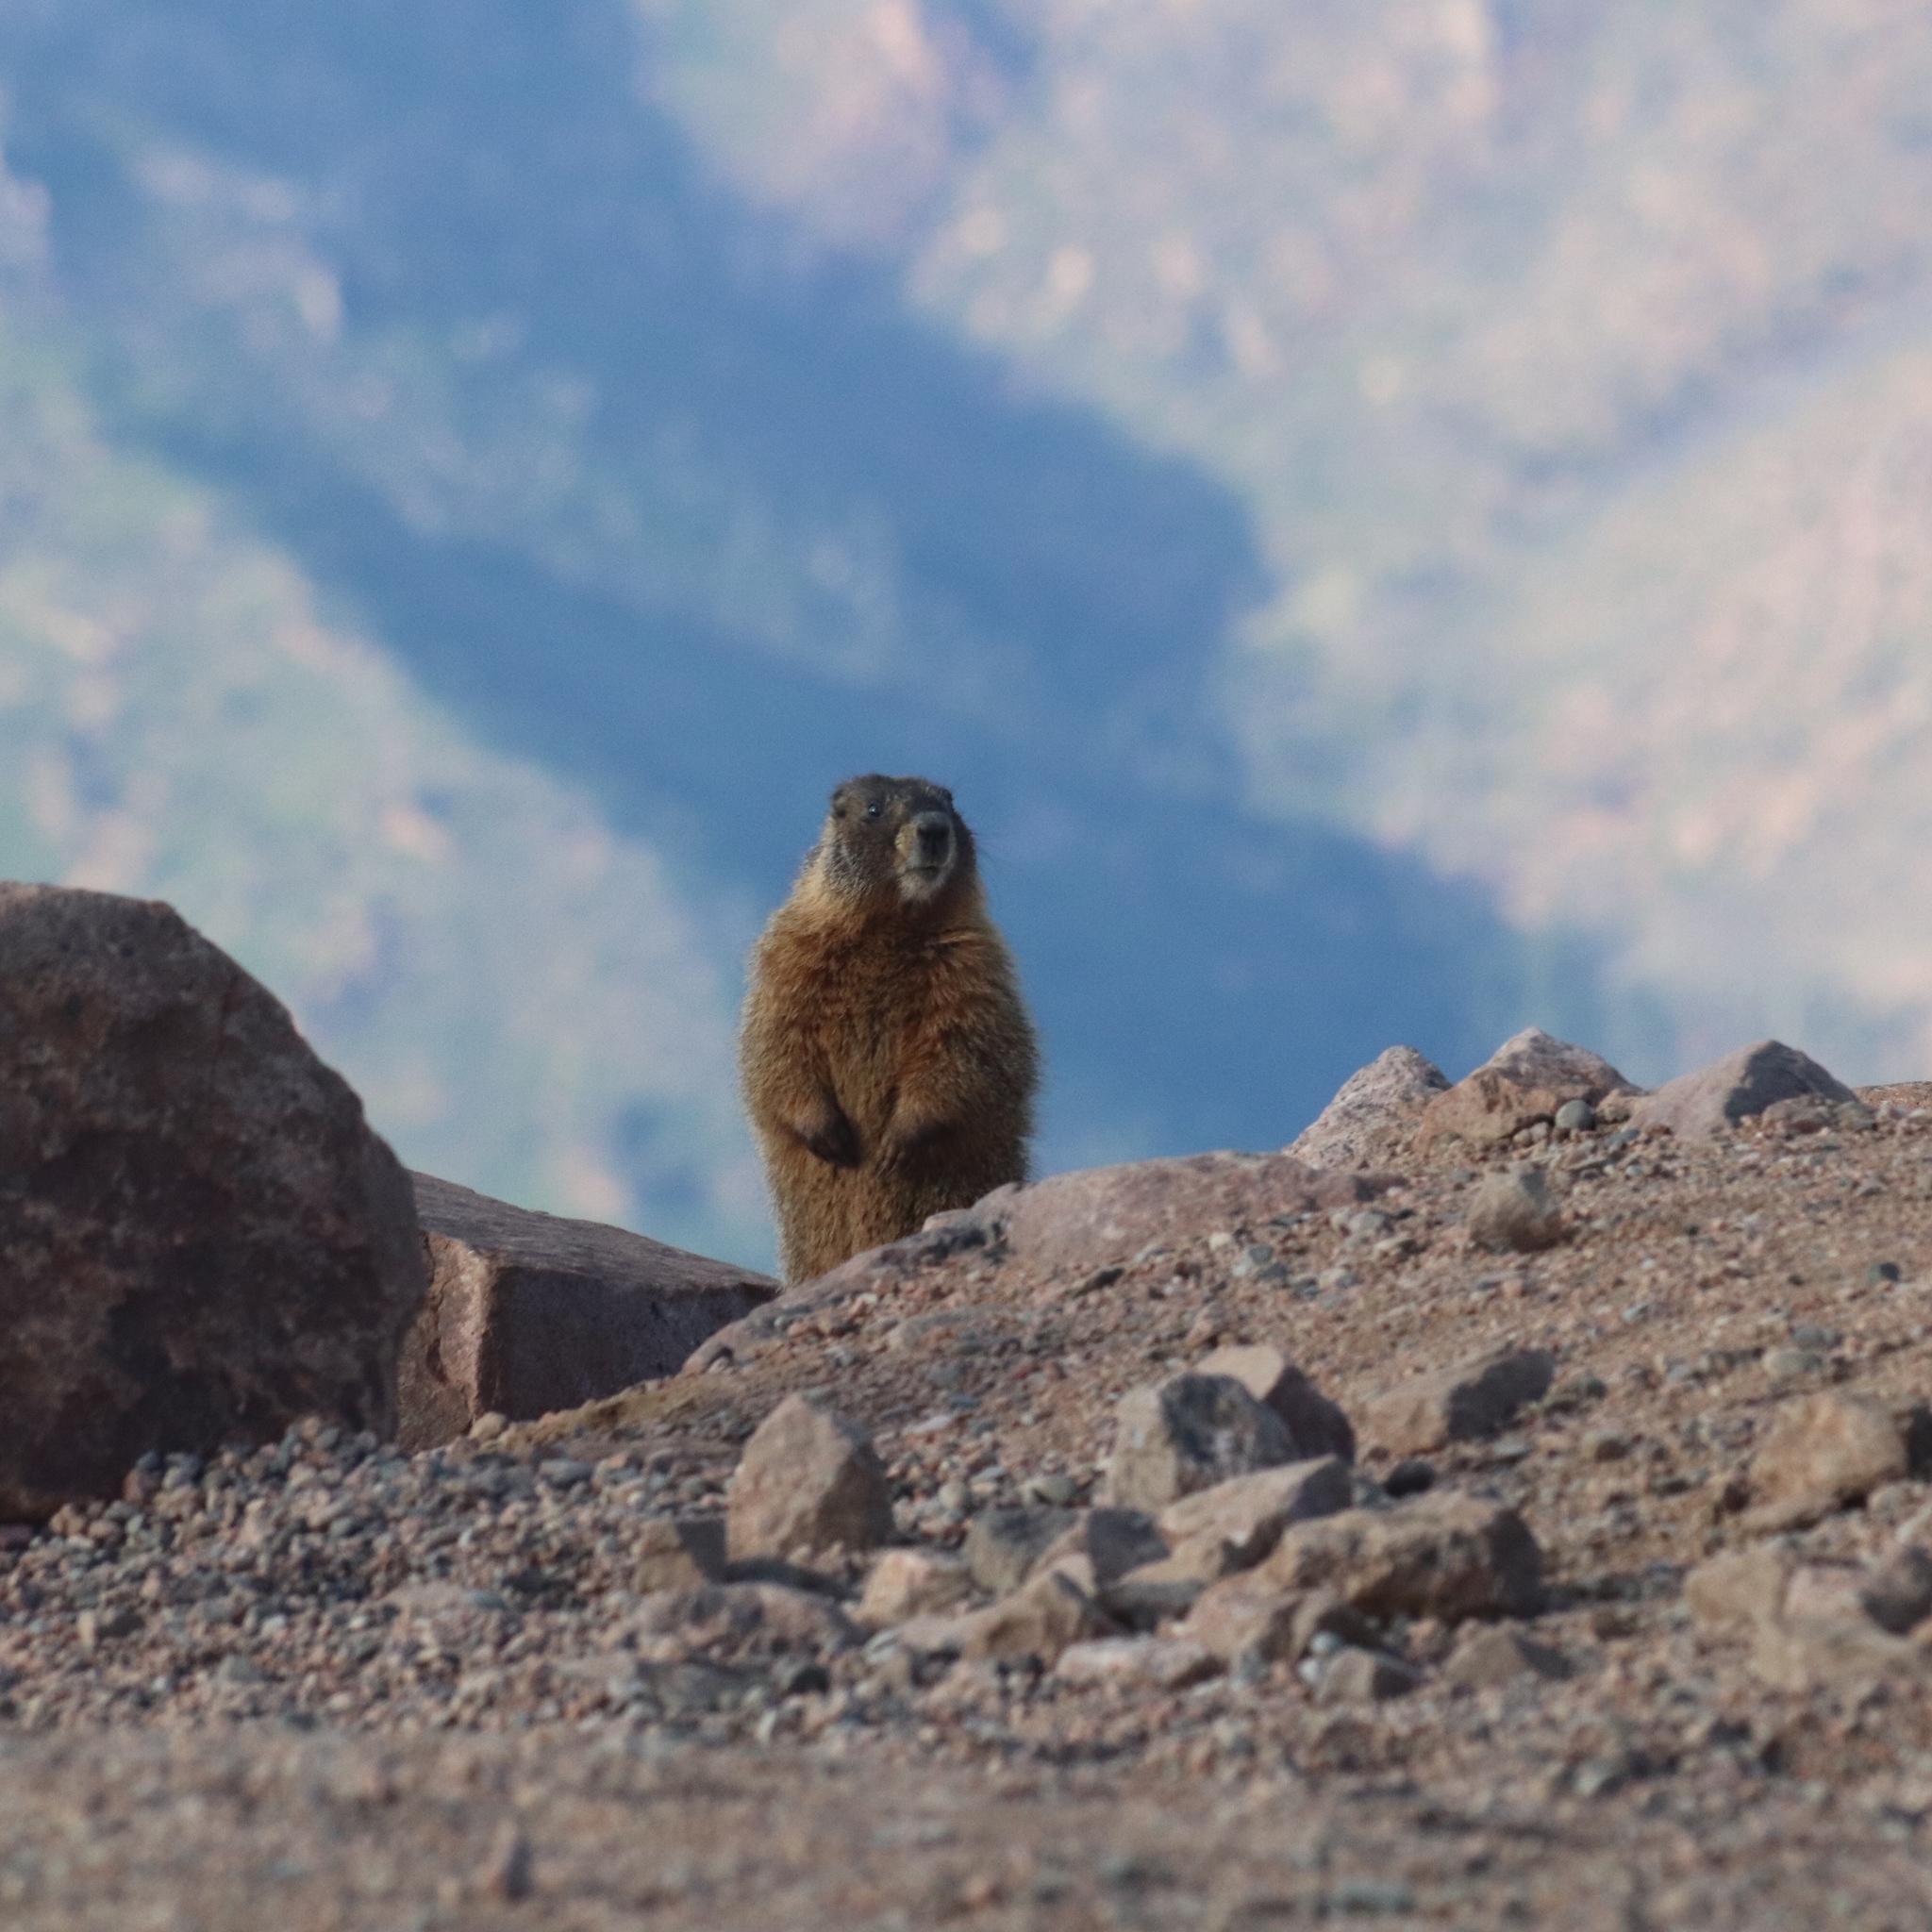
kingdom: Animalia
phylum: Chordata
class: Mammalia
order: Rodentia
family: Sciuridae
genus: Marmota
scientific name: Marmota flaviventris
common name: Yellow-bellied marmot
